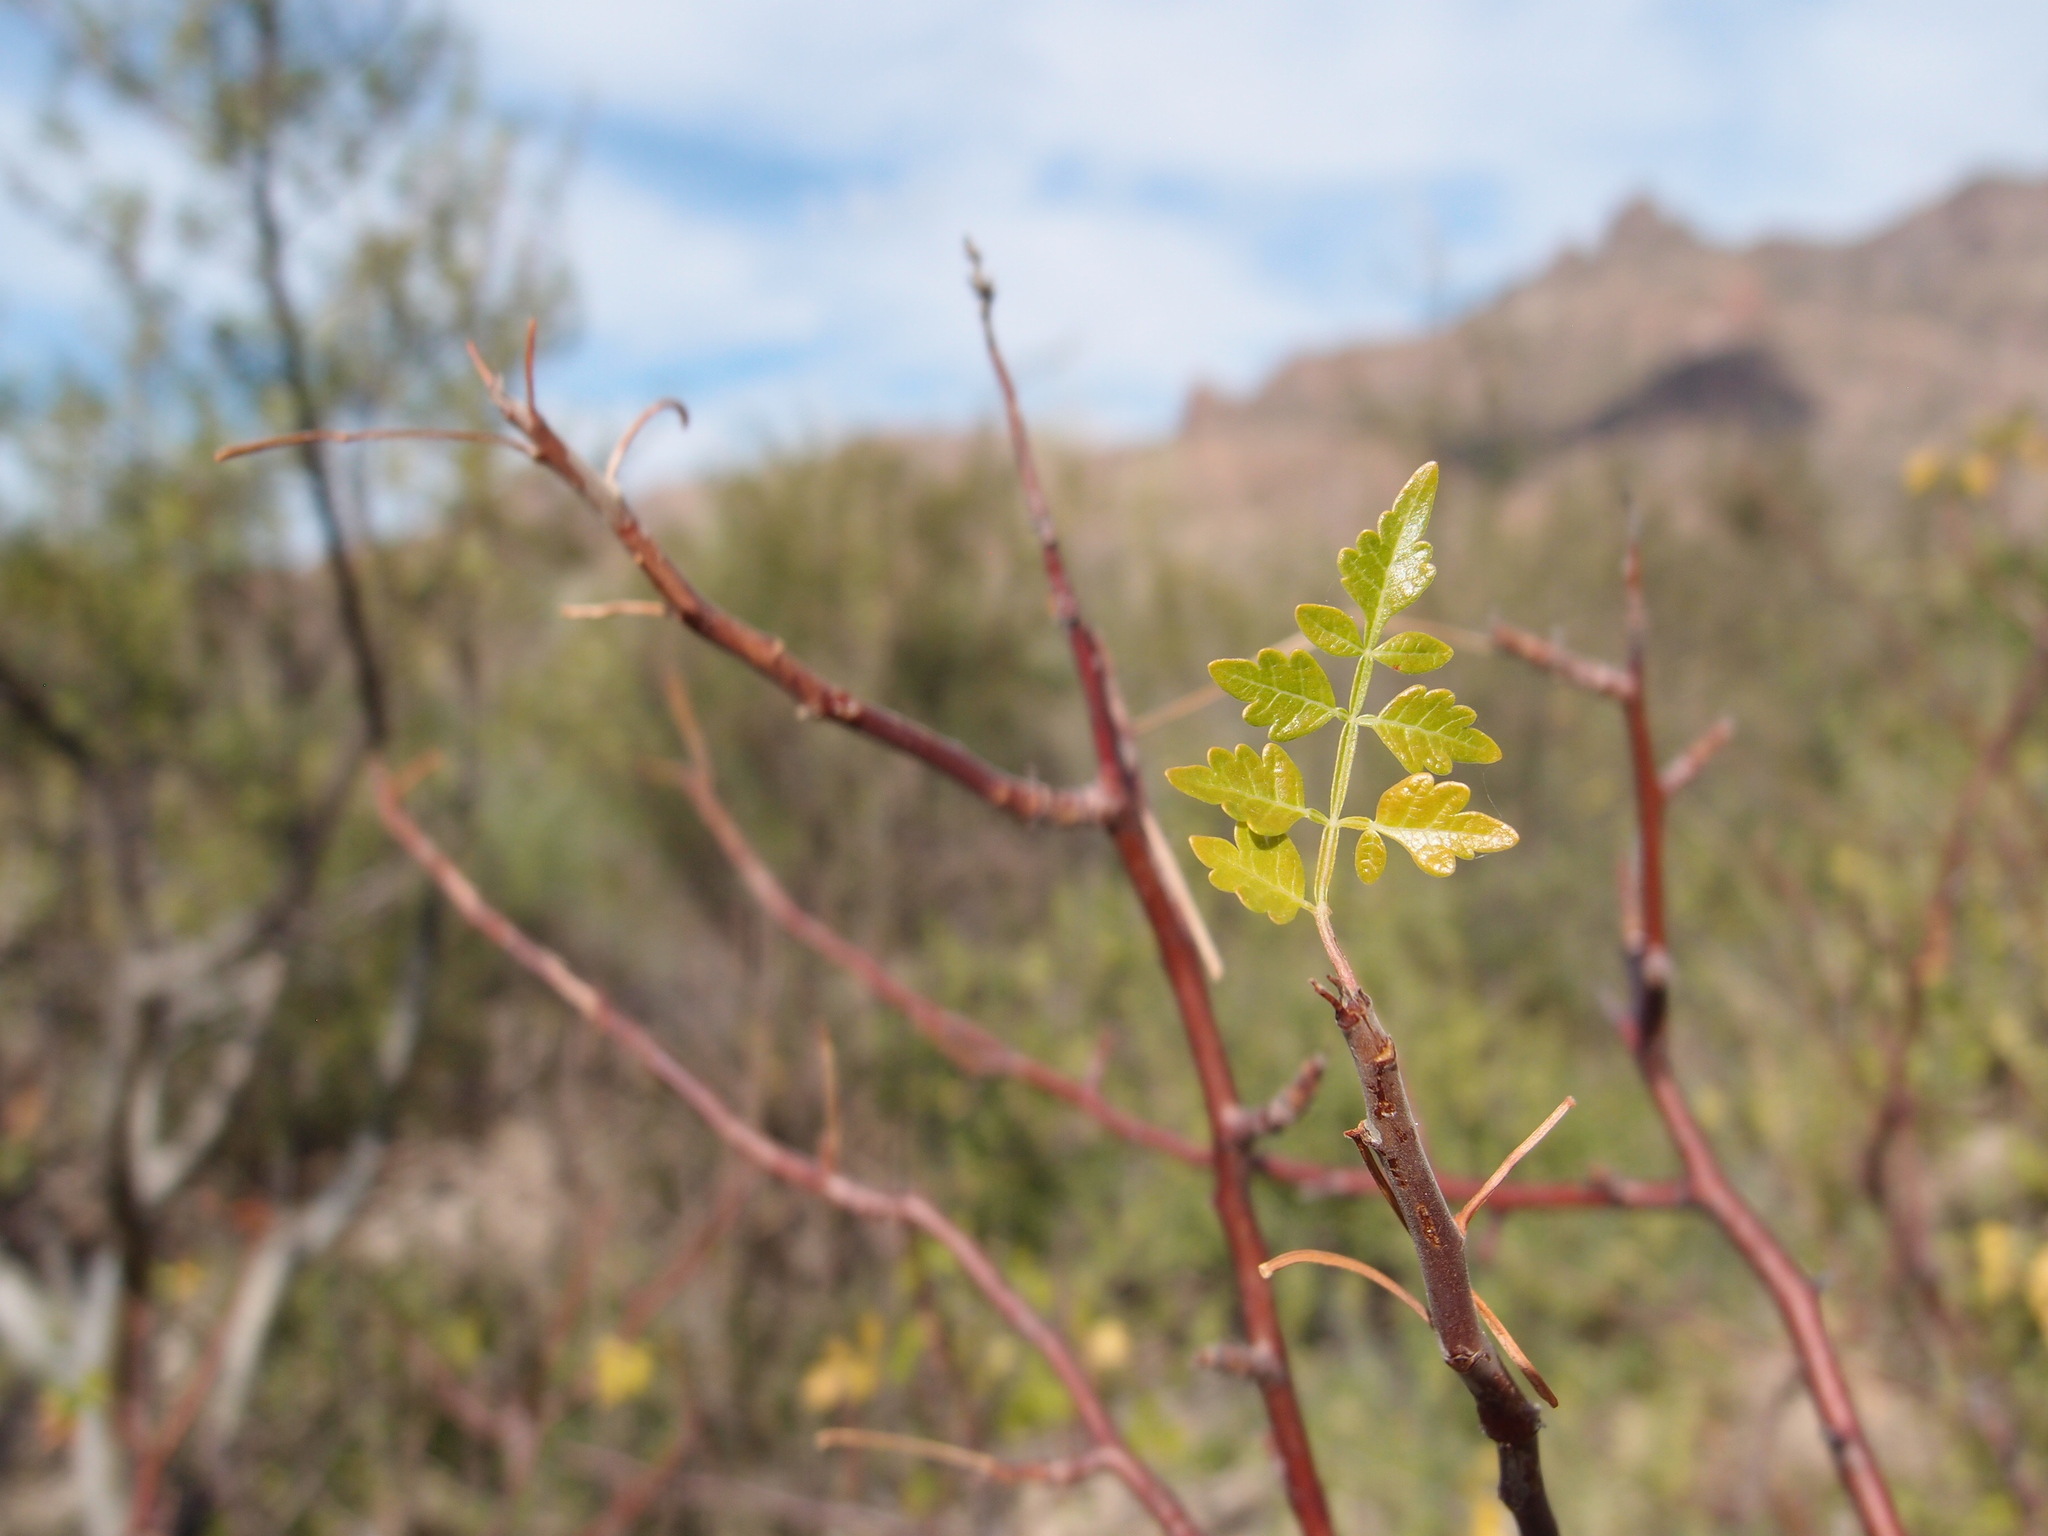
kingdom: Plantae
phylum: Tracheophyta
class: Magnoliopsida
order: Sapindales
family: Burseraceae
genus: Bursera
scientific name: Bursera laxiflora
